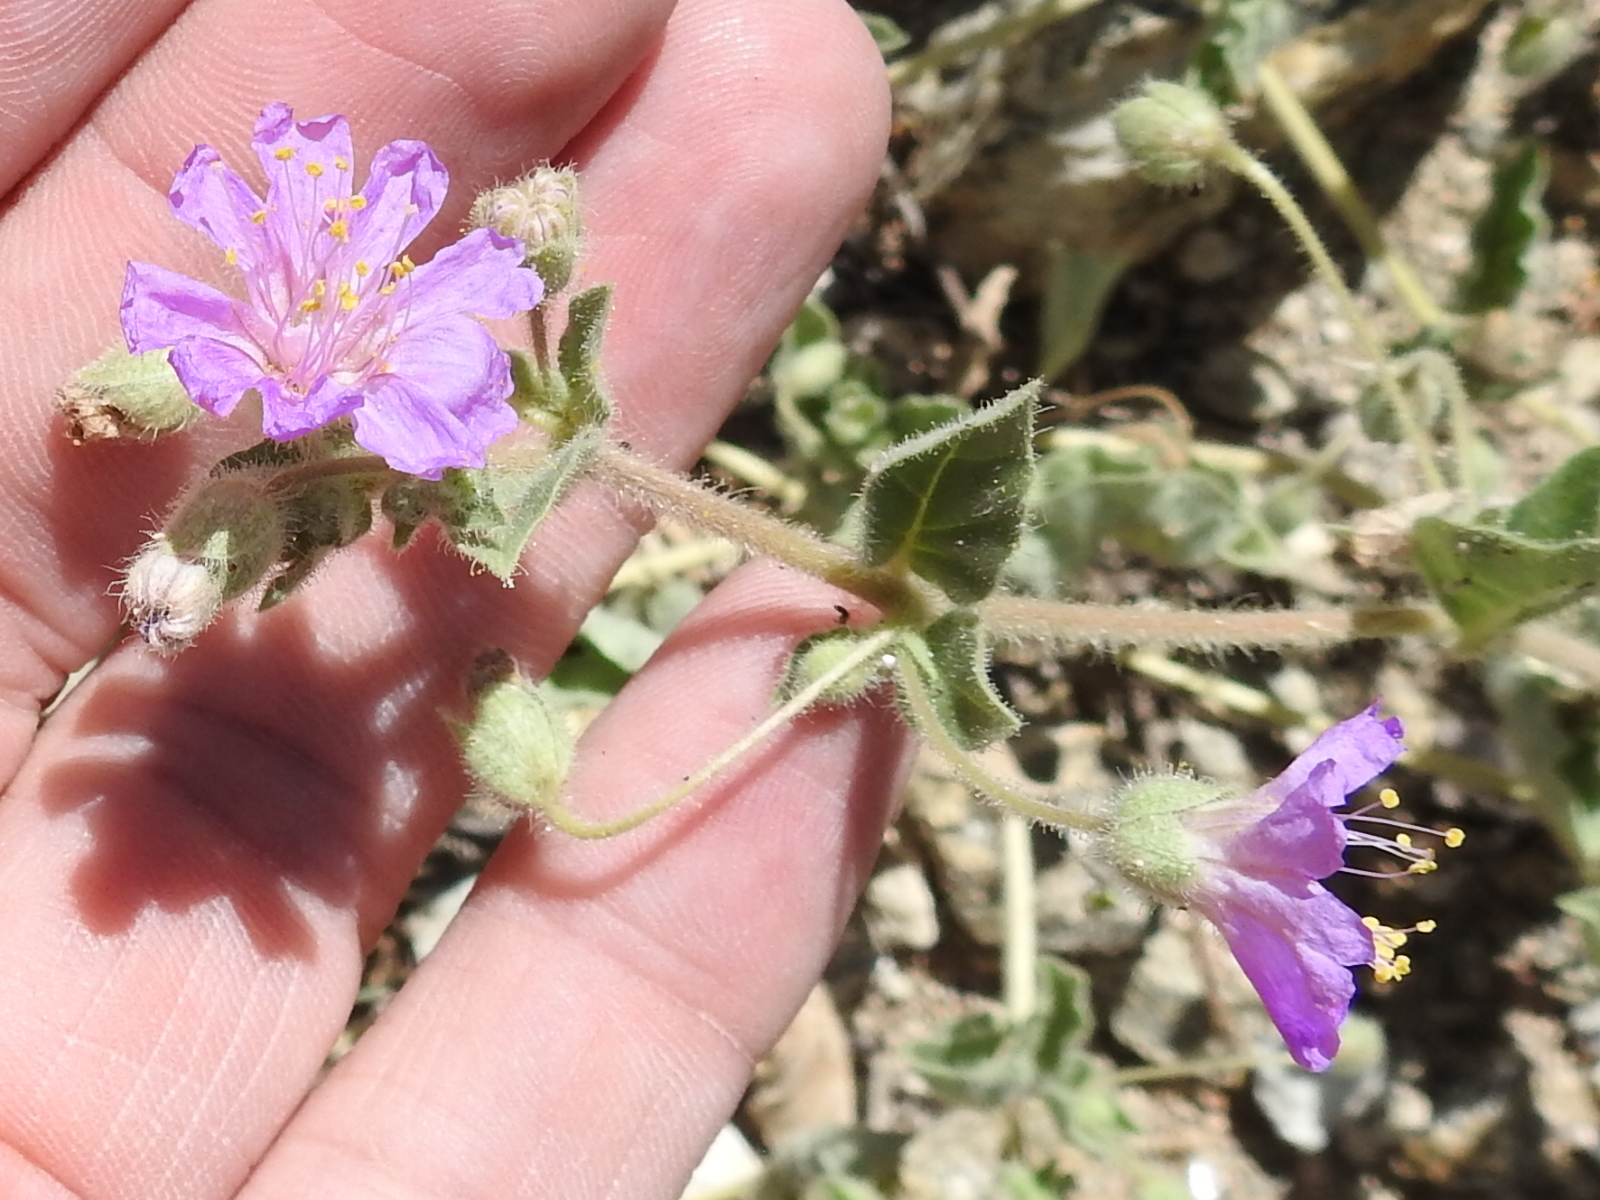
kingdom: Plantae
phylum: Tracheophyta
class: Magnoliopsida
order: Caryophyllales
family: Nyctaginaceae
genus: Allionia
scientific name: Allionia incarnata
